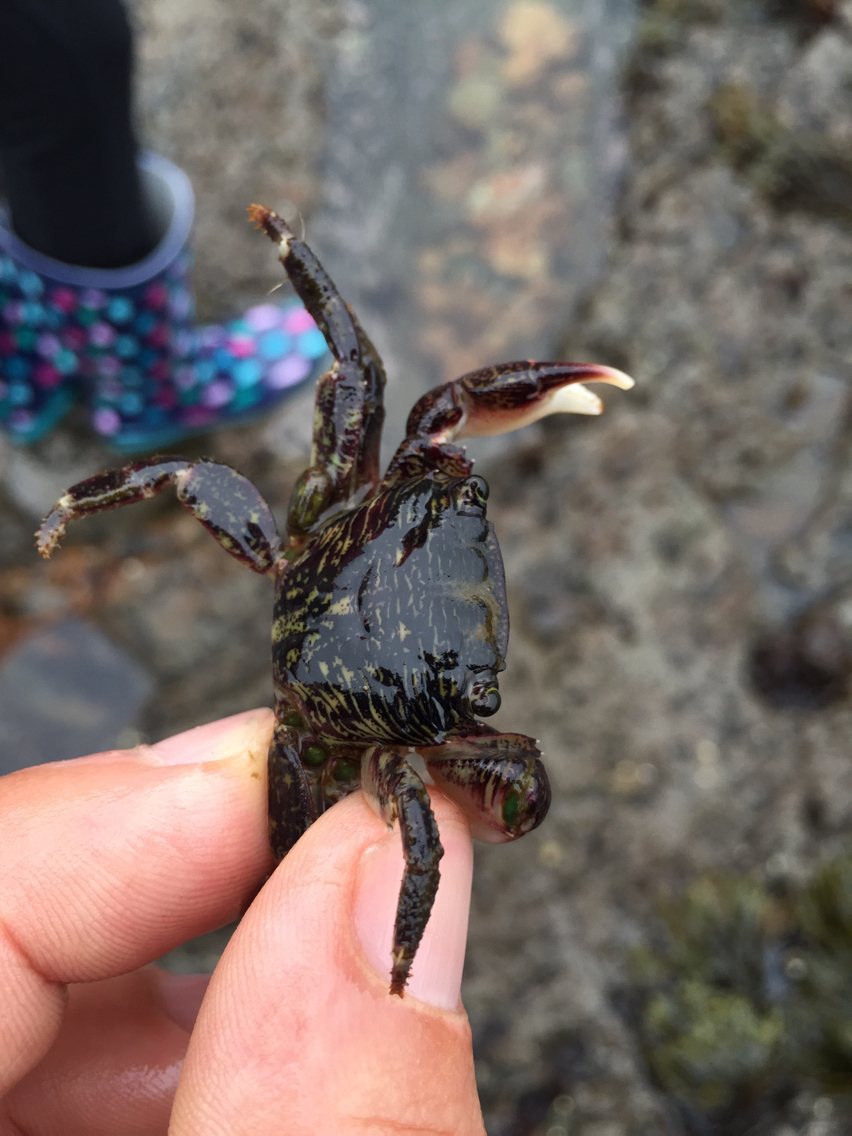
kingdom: Animalia
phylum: Arthropoda
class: Malacostraca
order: Decapoda
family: Grapsidae
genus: Pachygrapsus
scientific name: Pachygrapsus crassipes
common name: Striped shore crab
